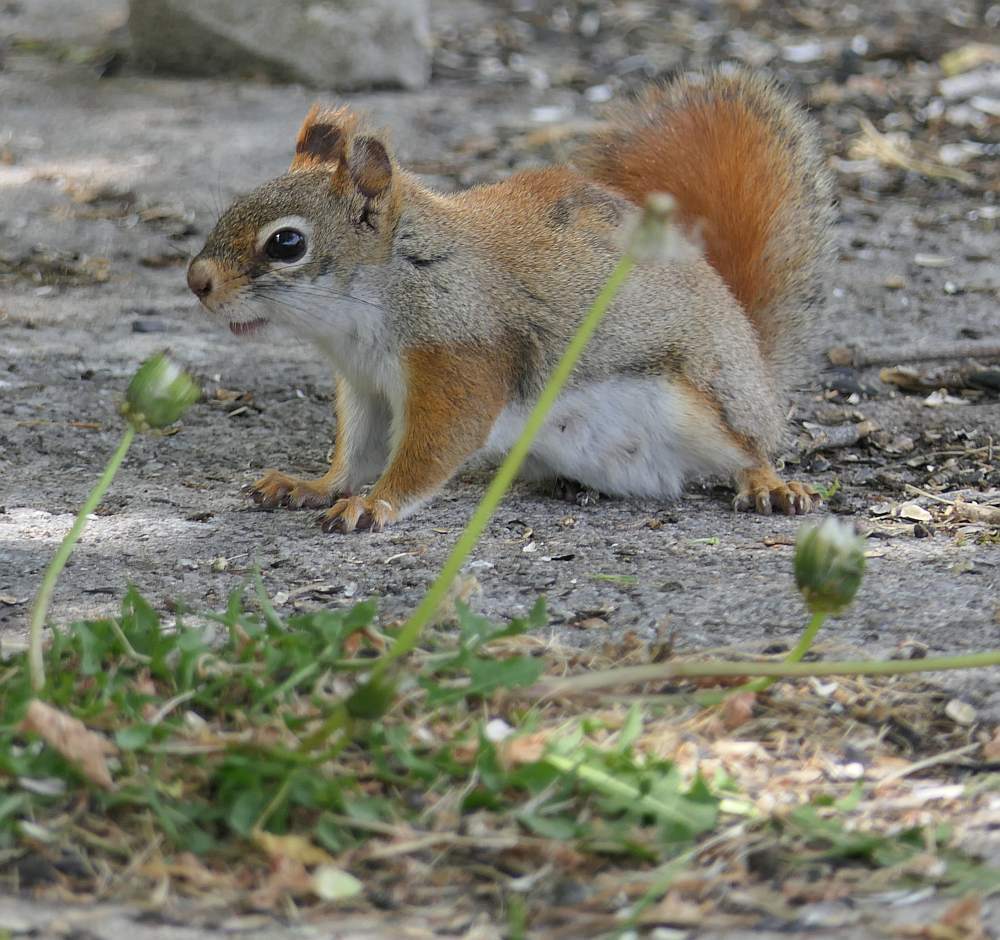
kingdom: Animalia
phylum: Chordata
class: Mammalia
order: Rodentia
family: Sciuridae
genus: Tamiasciurus
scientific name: Tamiasciurus hudsonicus
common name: Red squirrel
